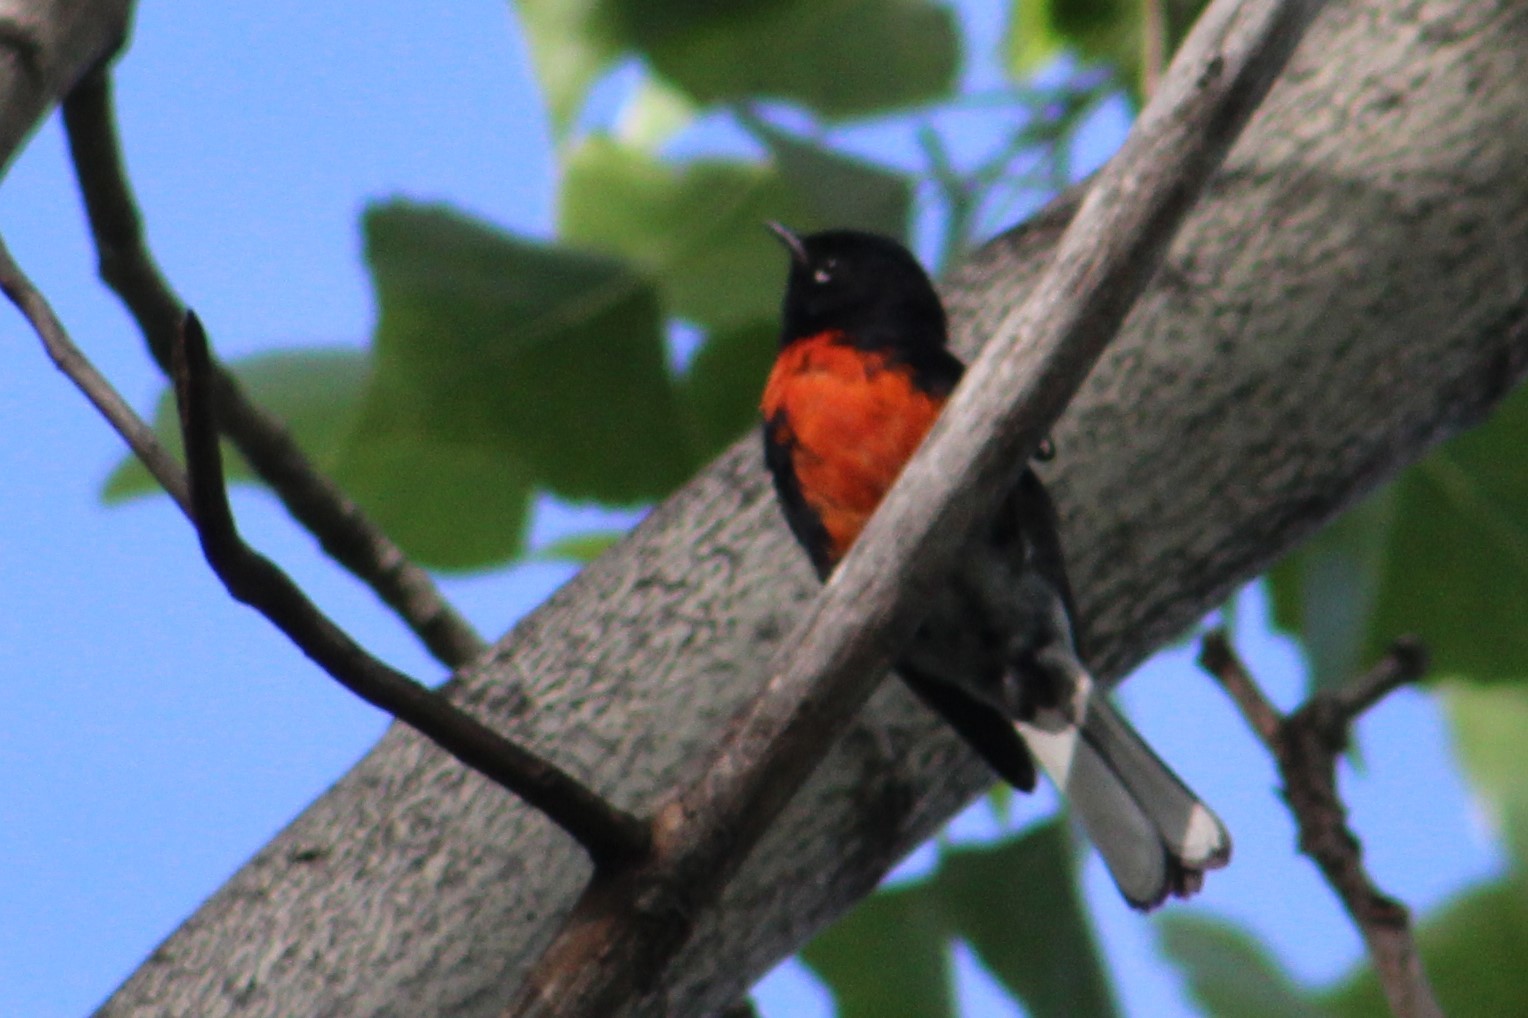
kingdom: Animalia
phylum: Chordata
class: Aves
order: Passeriformes
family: Parulidae
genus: Myioborus
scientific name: Myioborus pictus
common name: Painted whitestart
